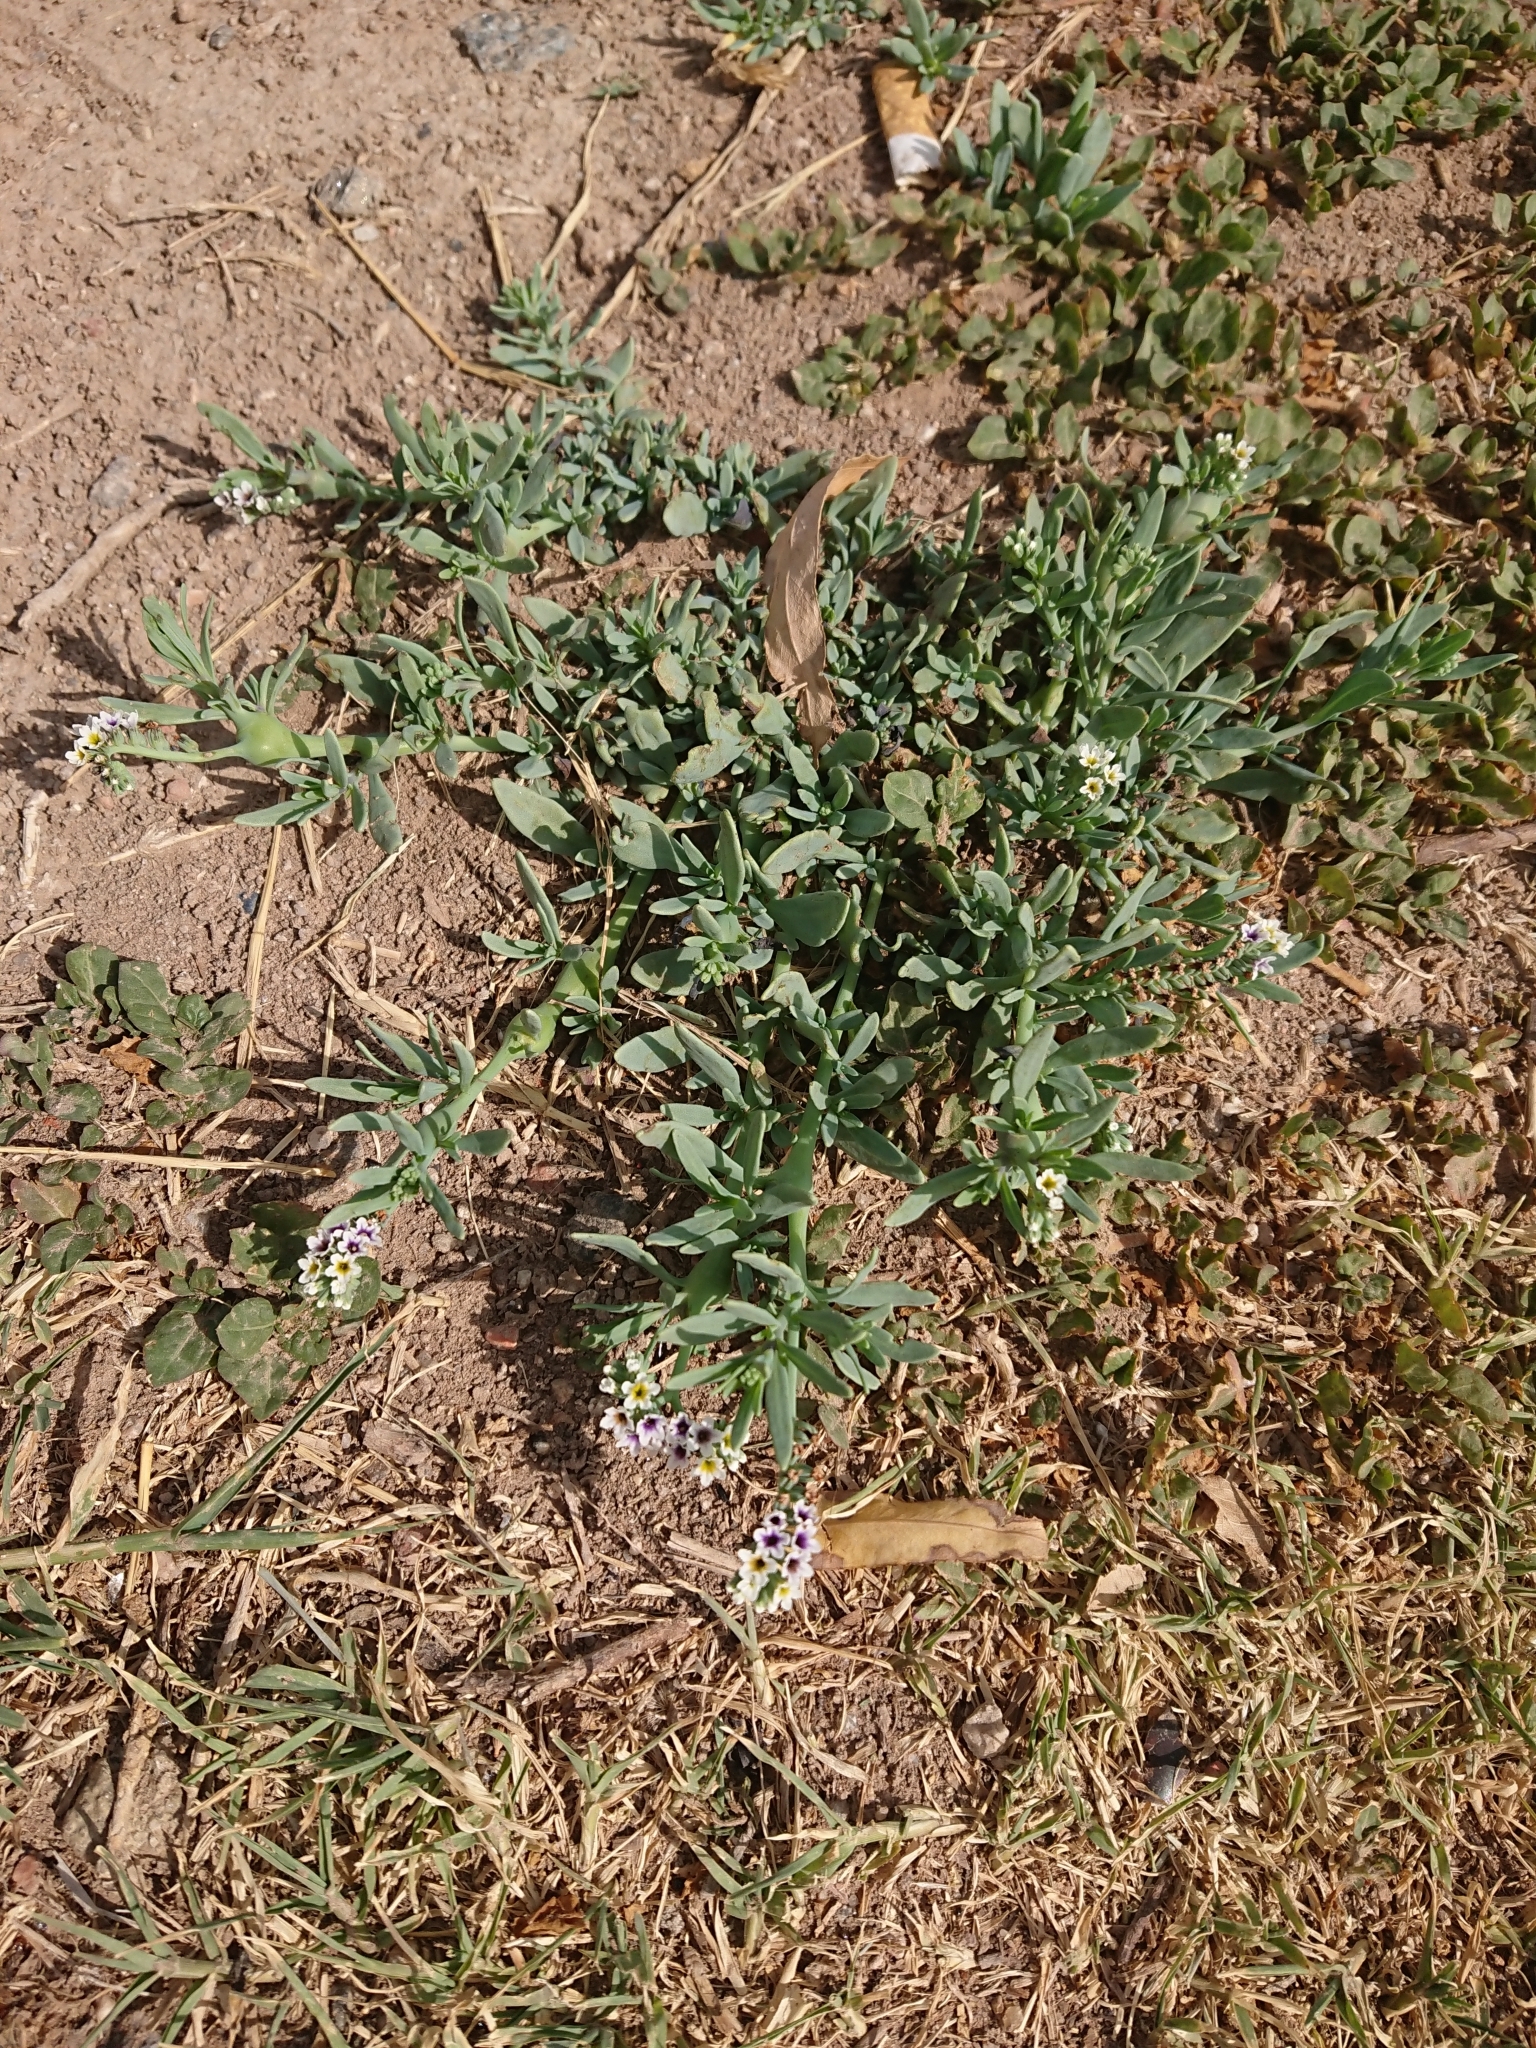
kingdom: Plantae
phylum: Tracheophyta
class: Magnoliopsida
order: Boraginales
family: Heliotropiaceae
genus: Heliotropium
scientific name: Heliotropium curassavicum
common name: Seaside heliotrope
